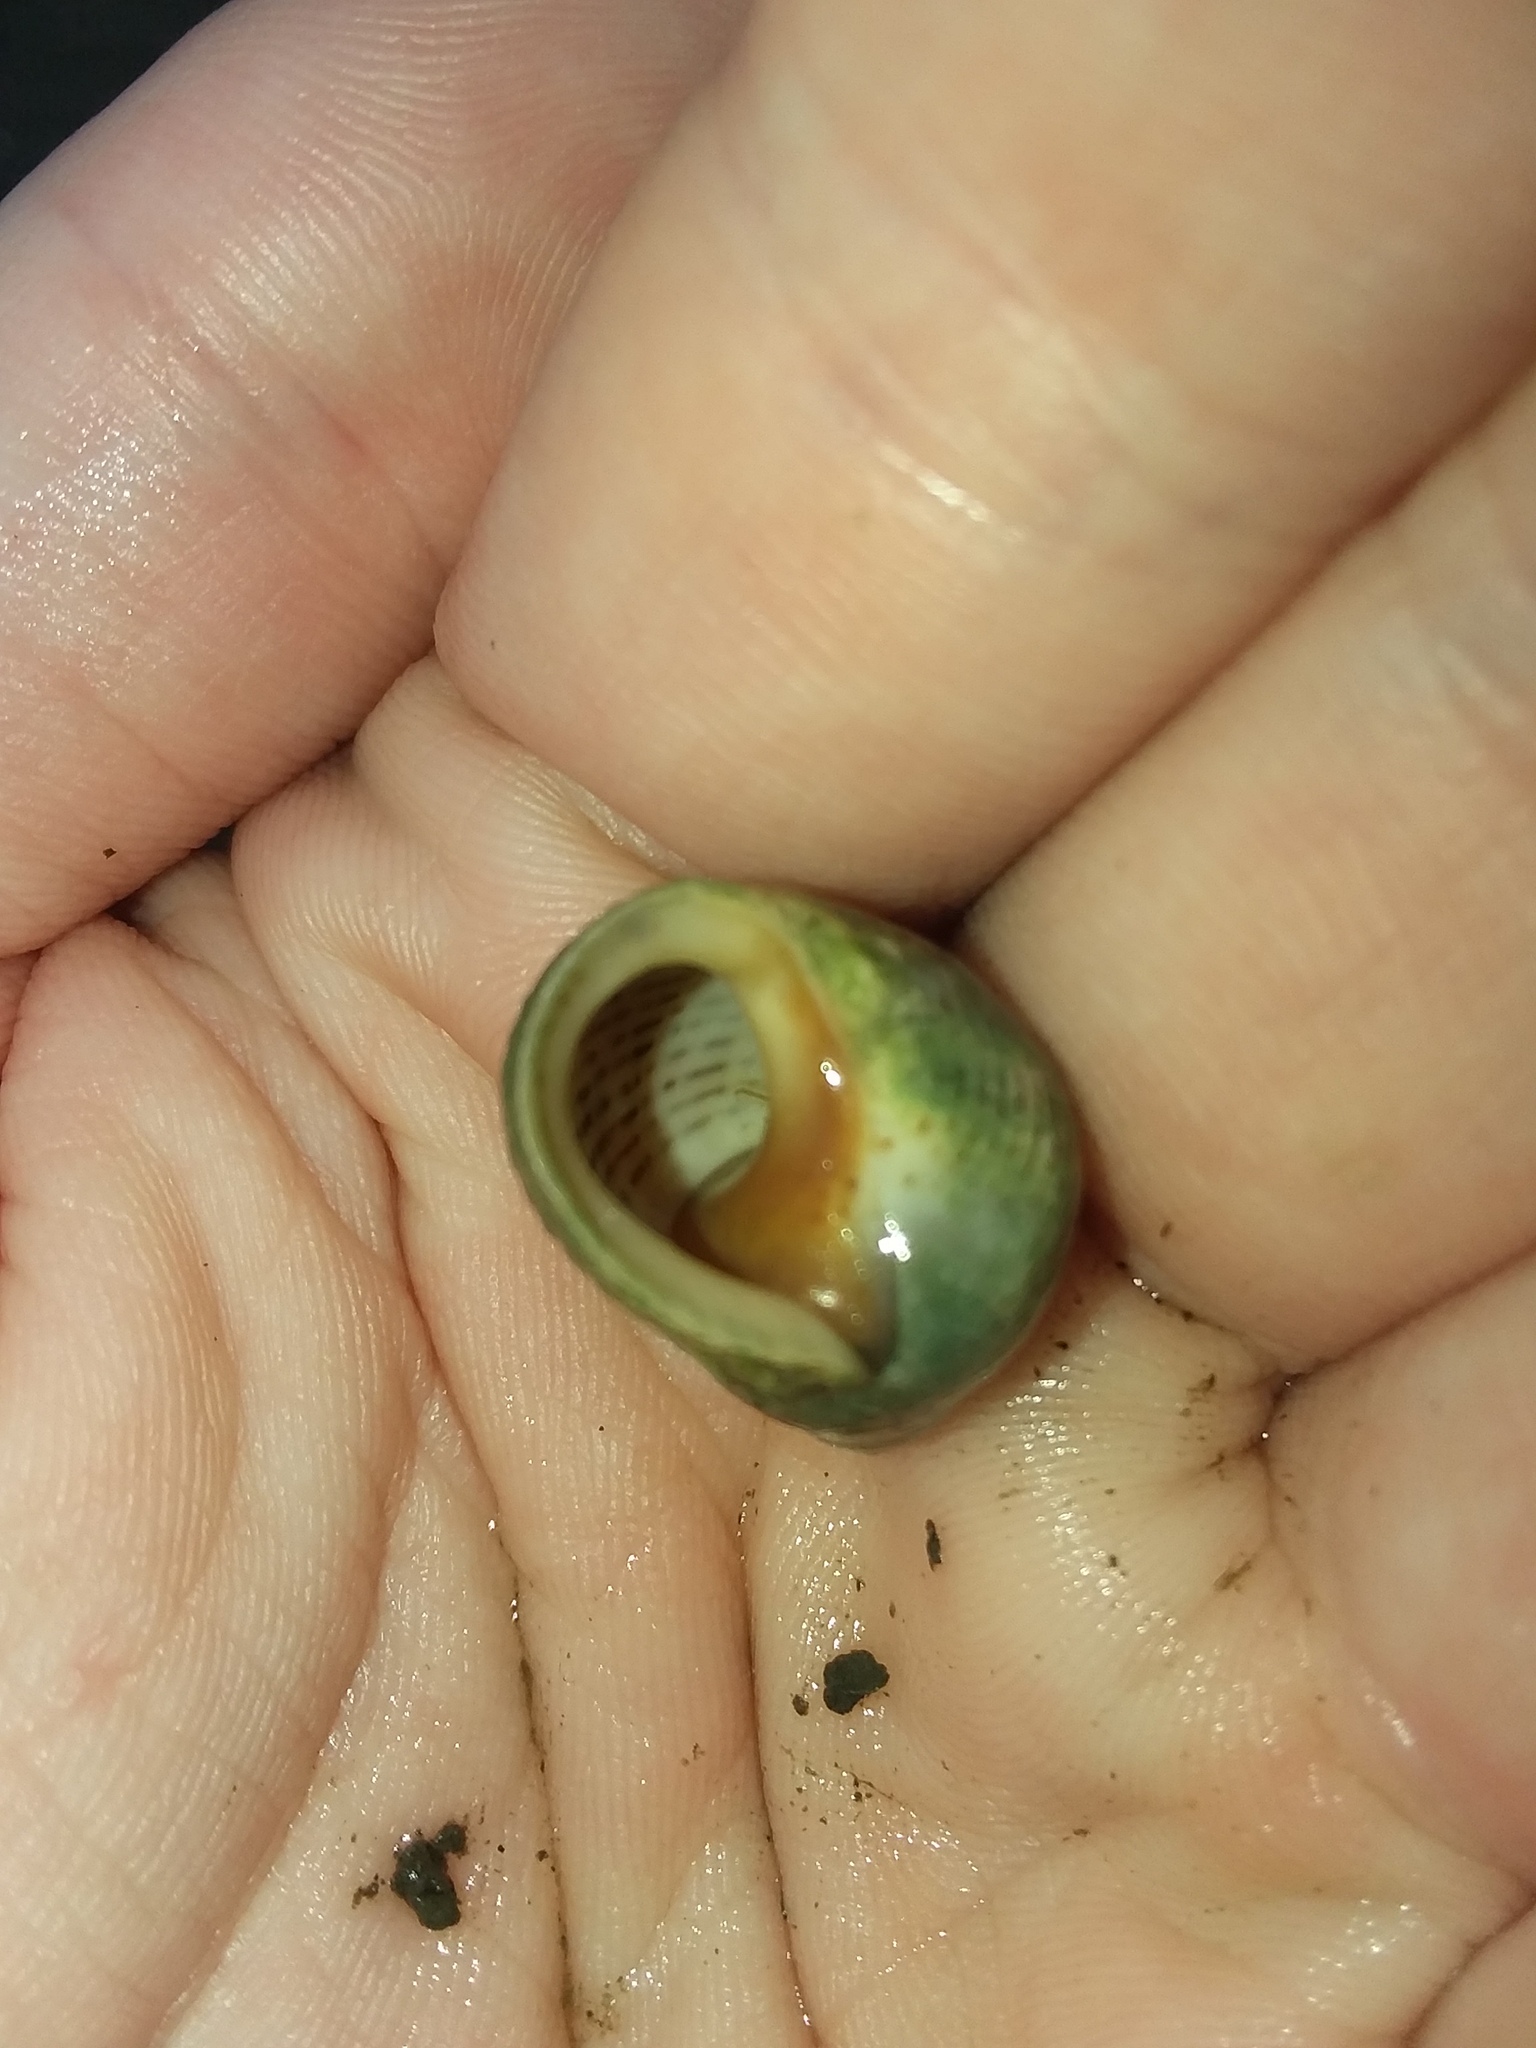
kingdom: Animalia
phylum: Mollusca
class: Gastropoda
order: Littorinimorpha
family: Littorinidae
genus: Littoraria
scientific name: Littoraria irrorata
